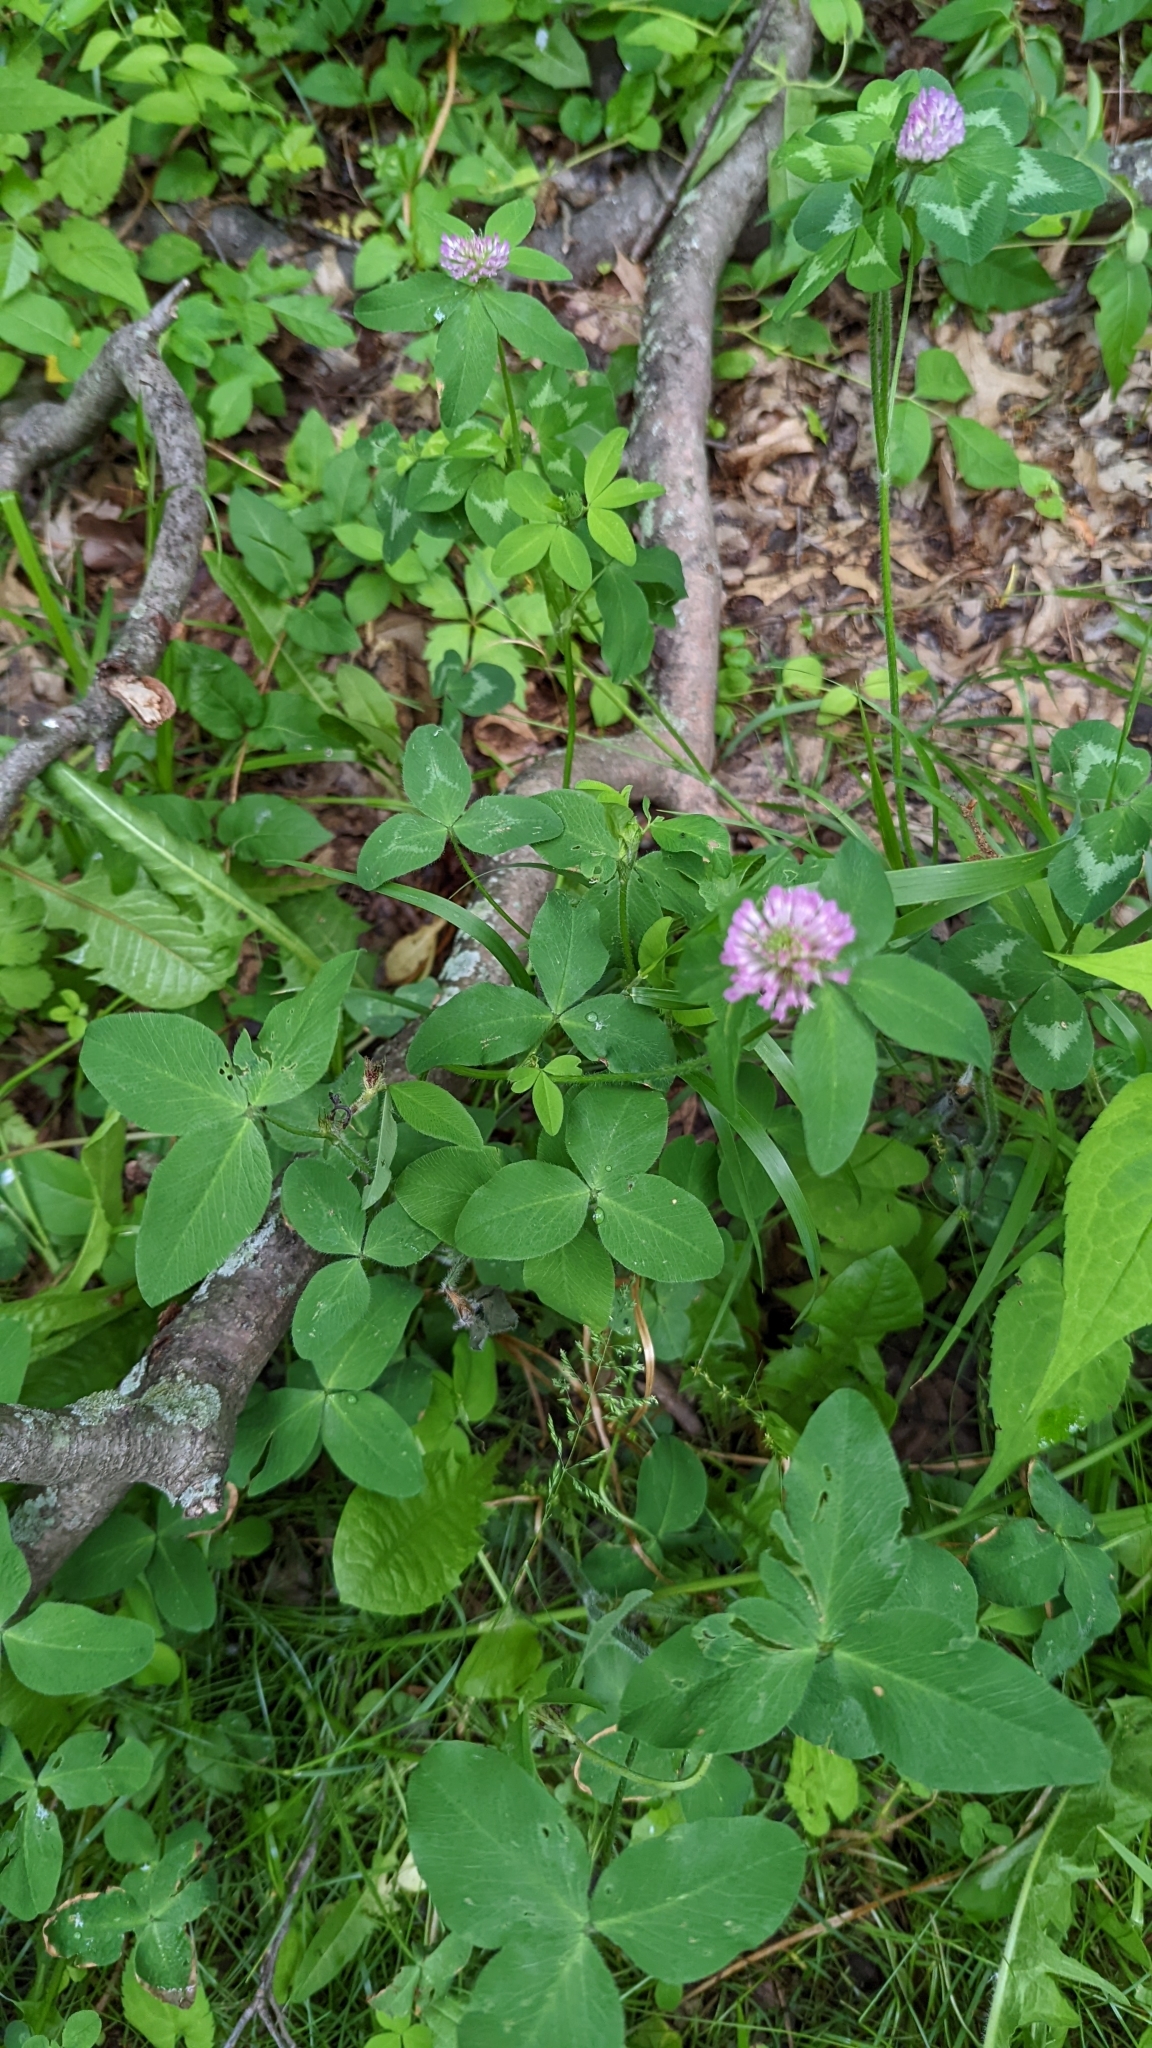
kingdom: Plantae
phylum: Tracheophyta
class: Magnoliopsida
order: Fabales
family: Fabaceae
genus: Trifolium
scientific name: Trifolium pratense
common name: Red clover
